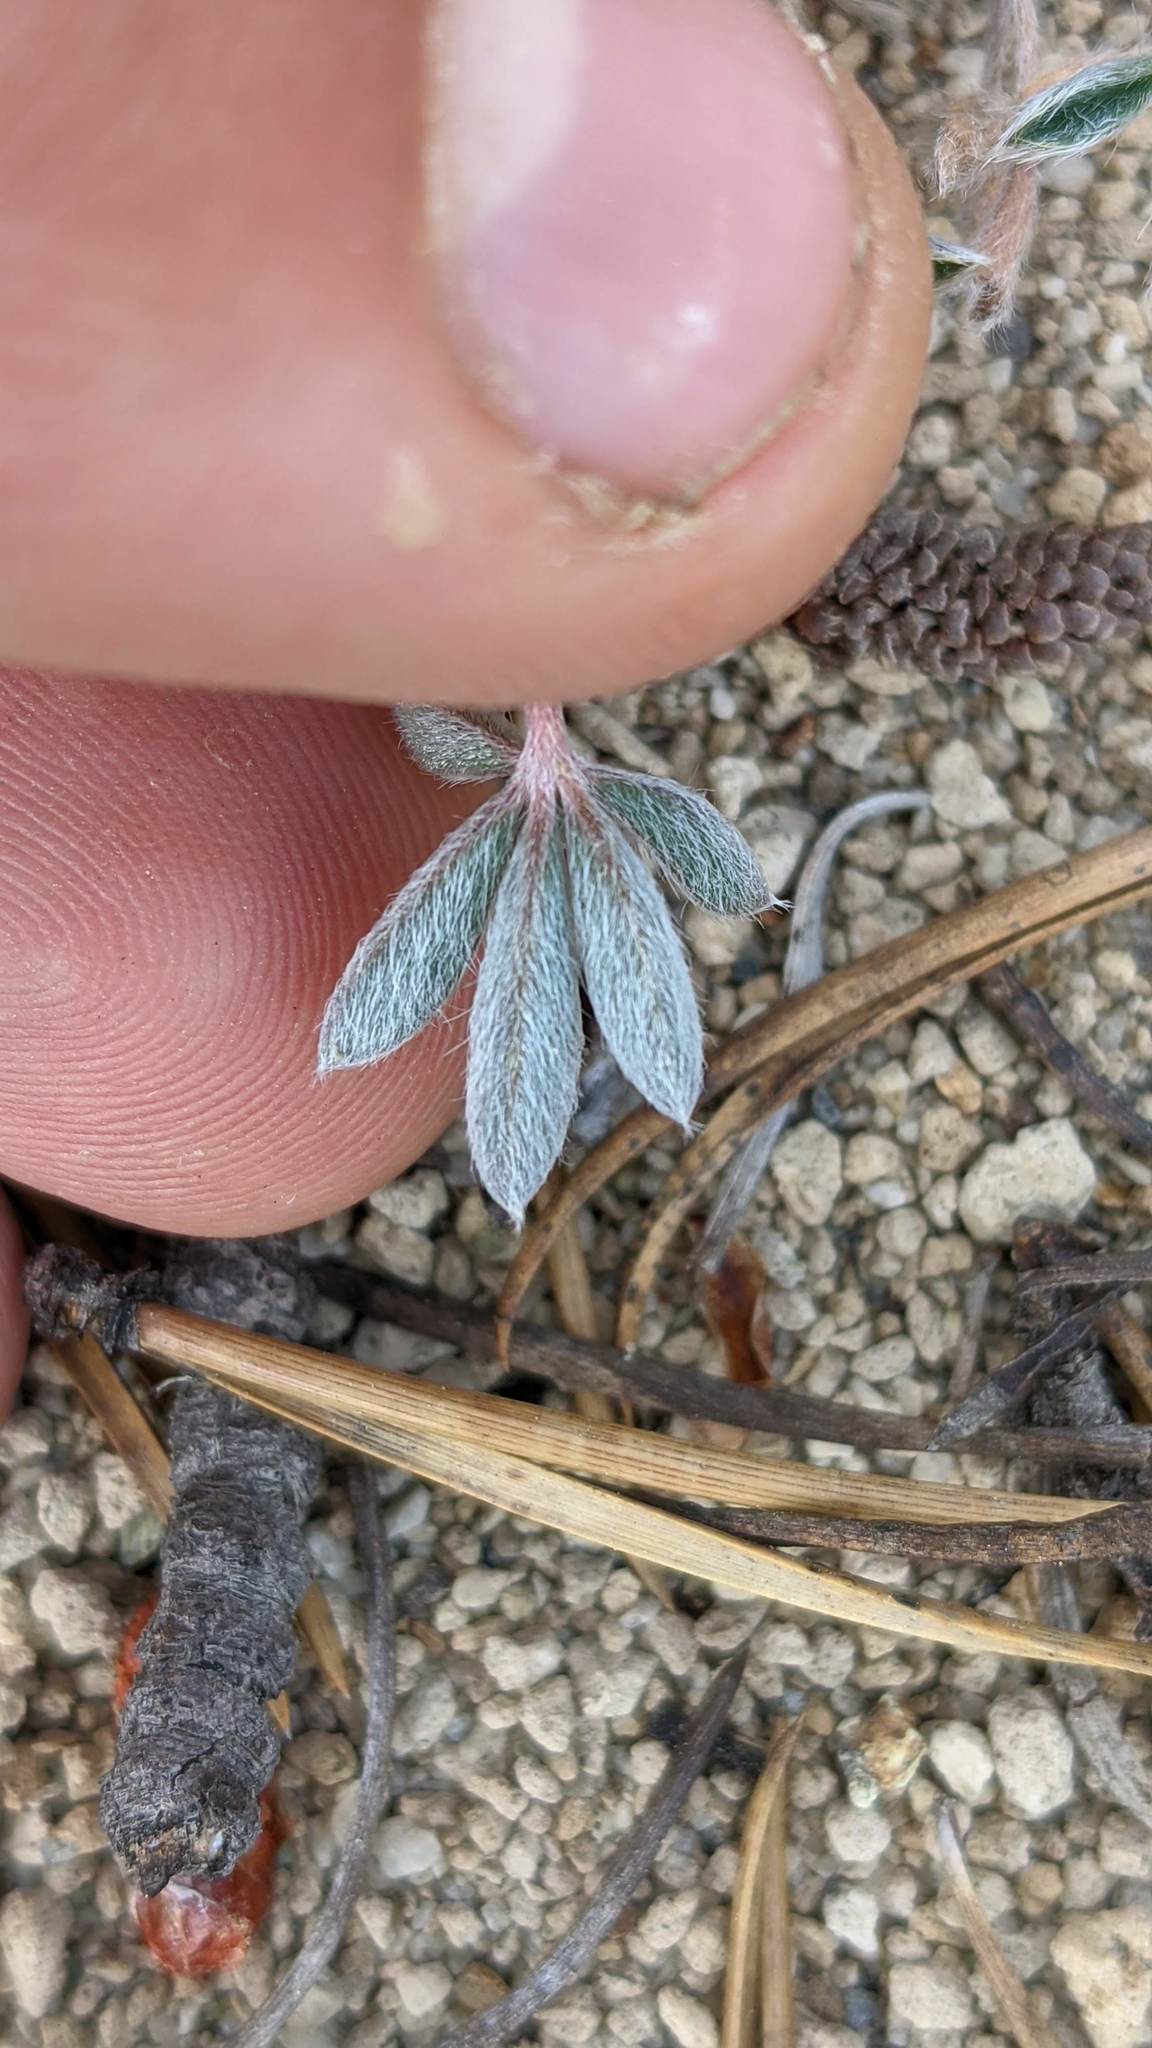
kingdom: Plantae
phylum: Tracheophyta
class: Magnoliopsida
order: Fabales
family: Fabaceae
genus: Lupinus
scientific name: Lupinus sellulus
